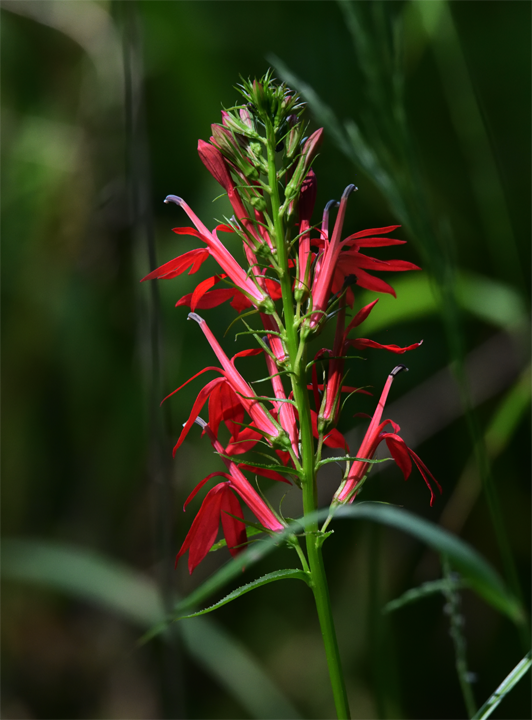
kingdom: Plantae
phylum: Tracheophyta
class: Magnoliopsida
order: Asterales
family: Campanulaceae
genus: Lobelia
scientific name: Lobelia cardinalis
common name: Cardinal flower
